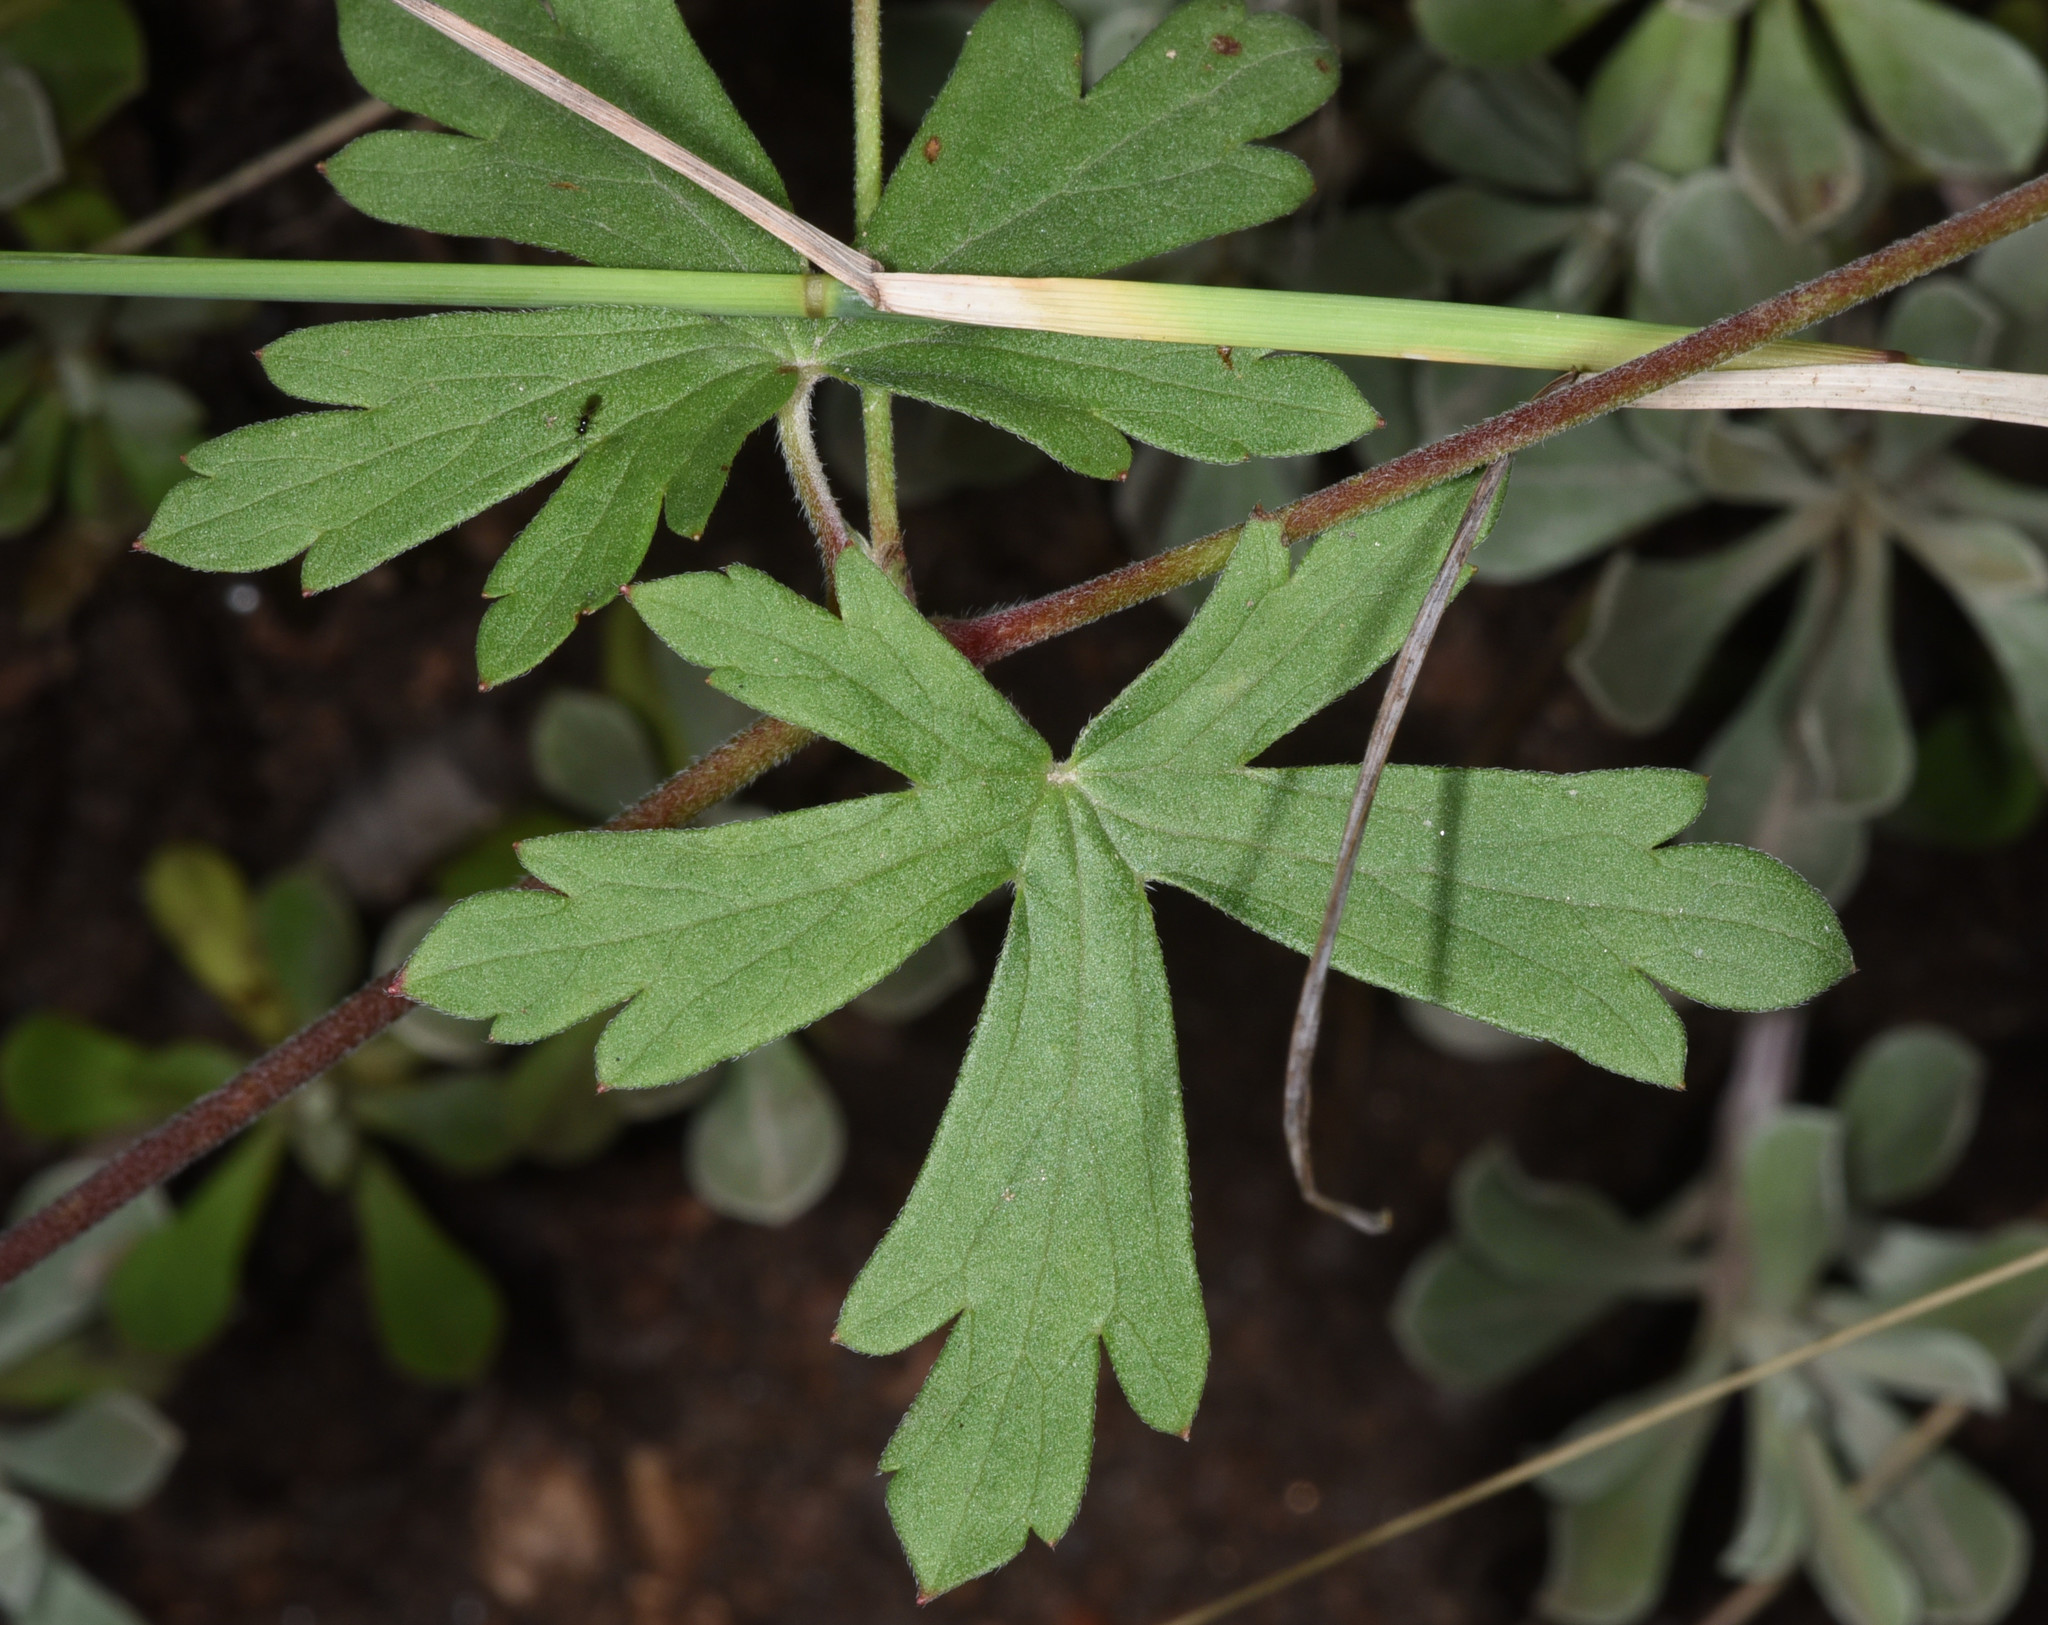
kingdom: Plantae
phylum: Tracheophyta
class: Magnoliopsida
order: Geraniales
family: Geraniaceae
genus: Geranium
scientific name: Geranium caespitosum
